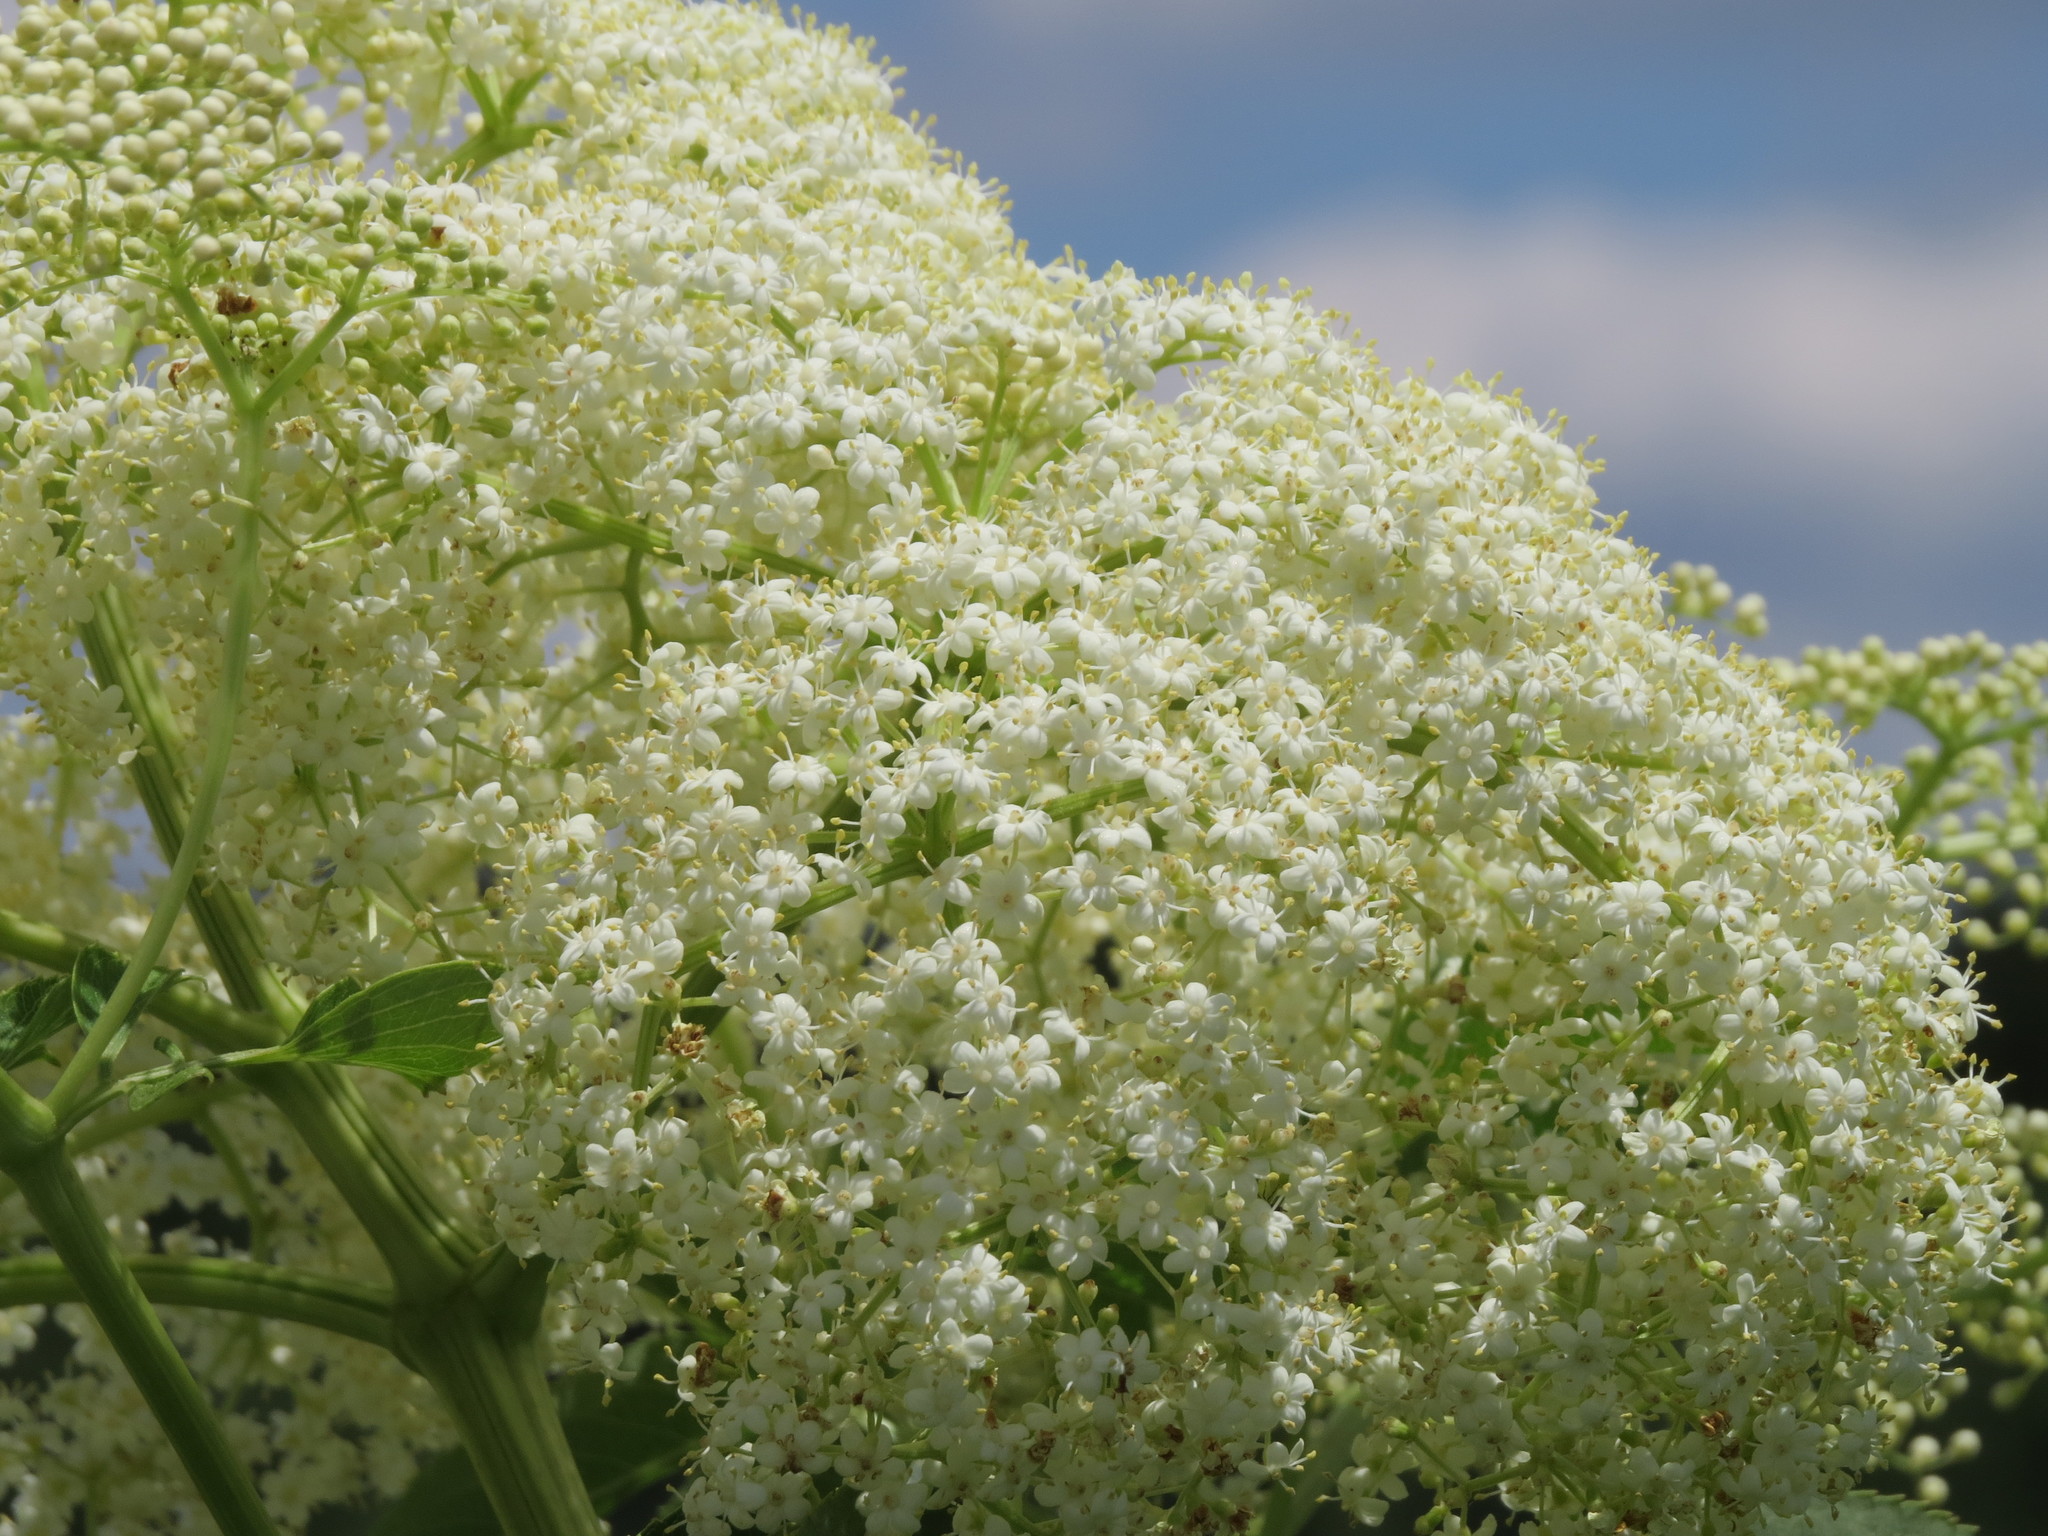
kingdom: Plantae
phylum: Tracheophyta
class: Magnoliopsida
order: Dipsacales
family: Viburnaceae
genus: Sambucus
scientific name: Sambucus canadensis
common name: American elder
